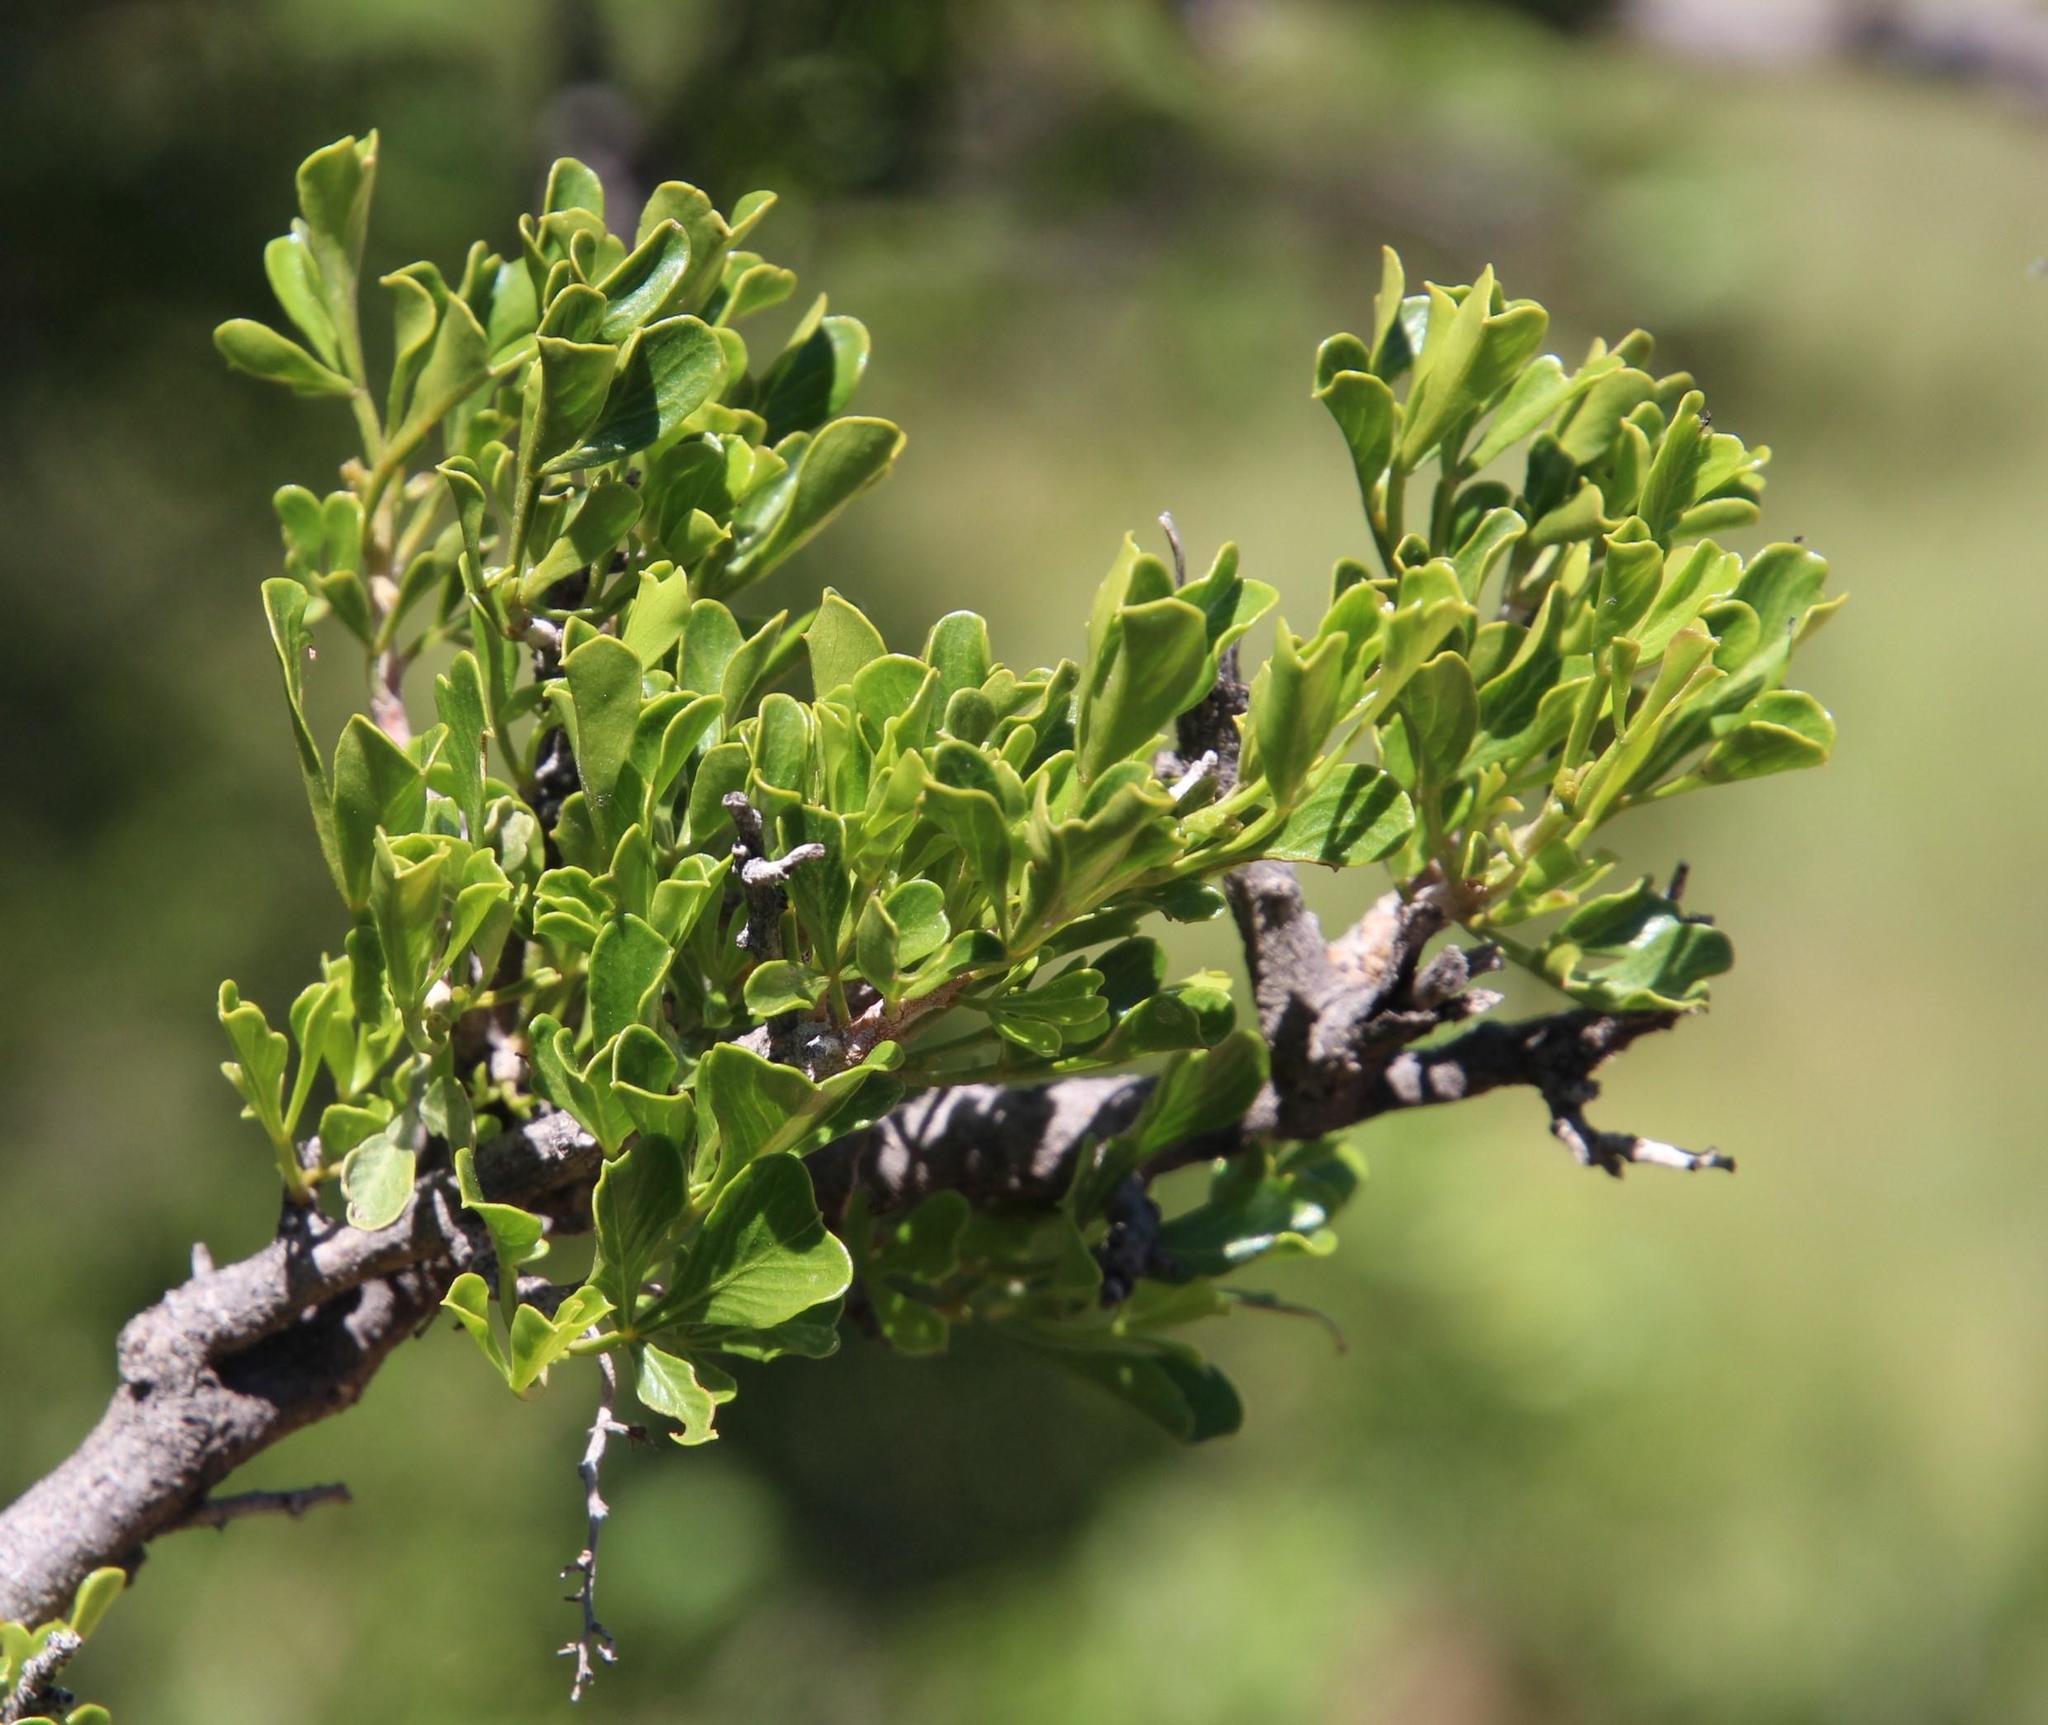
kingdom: Plantae
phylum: Tracheophyta
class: Magnoliopsida
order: Sapindales
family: Anacardiaceae
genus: Searsia
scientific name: Searsia burchellii
